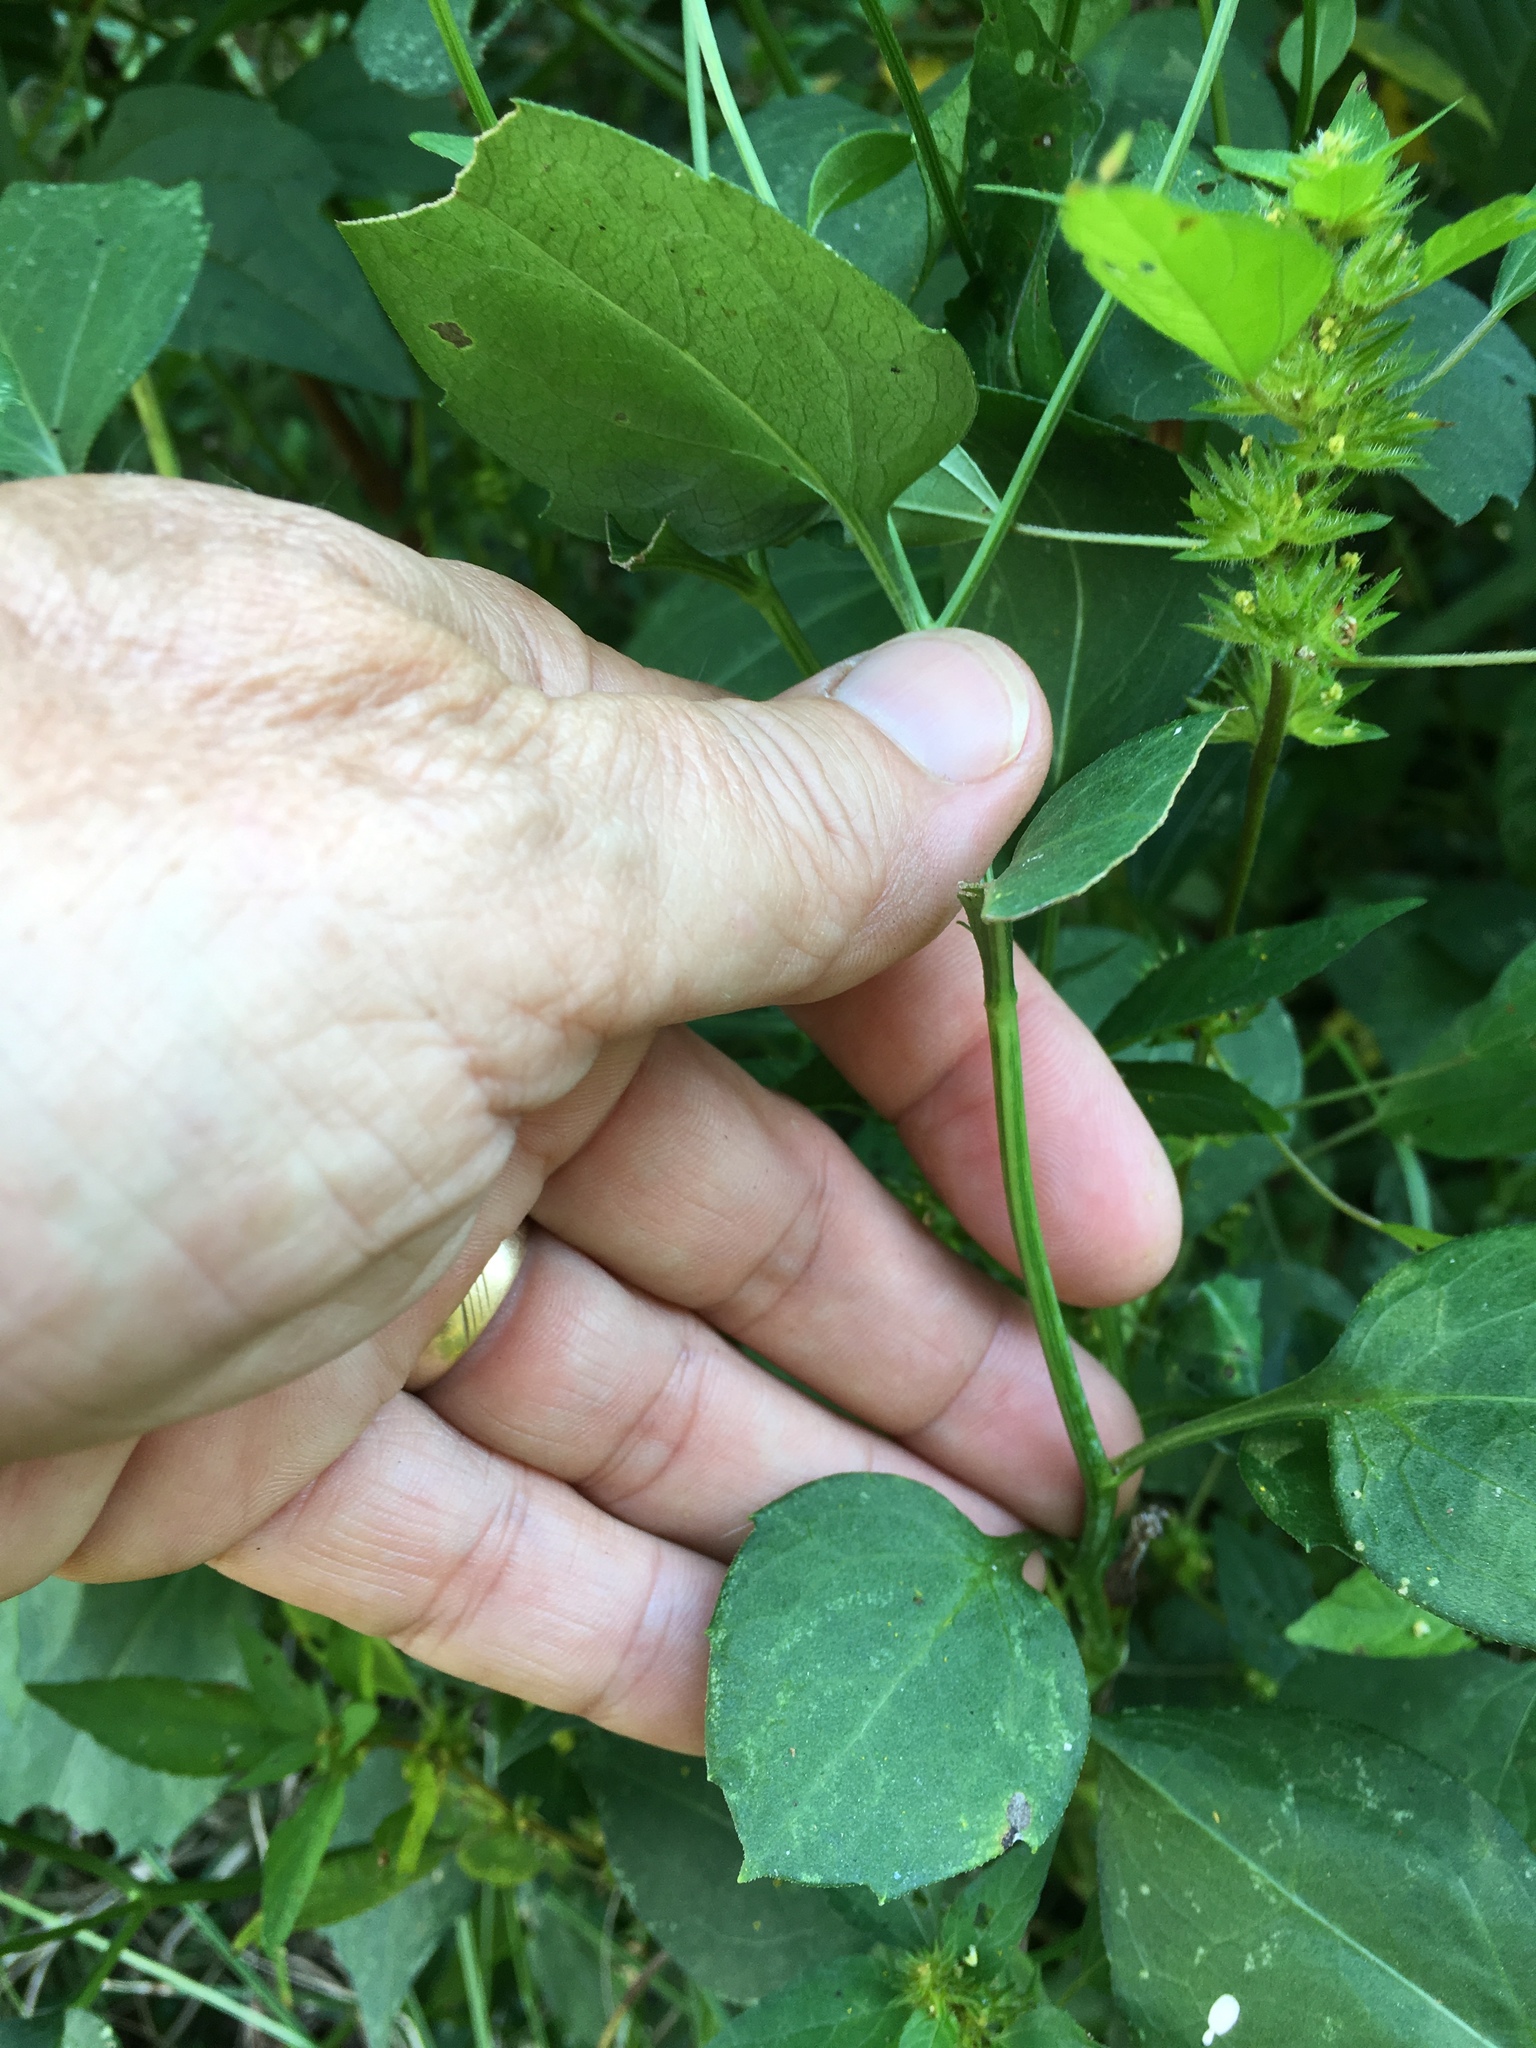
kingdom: Plantae
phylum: Tracheophyta
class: Magnoliopsida
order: Asterales
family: Asteraceae
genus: Rudbeckia
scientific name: Rudbeckia laciniata
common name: Coneflower
